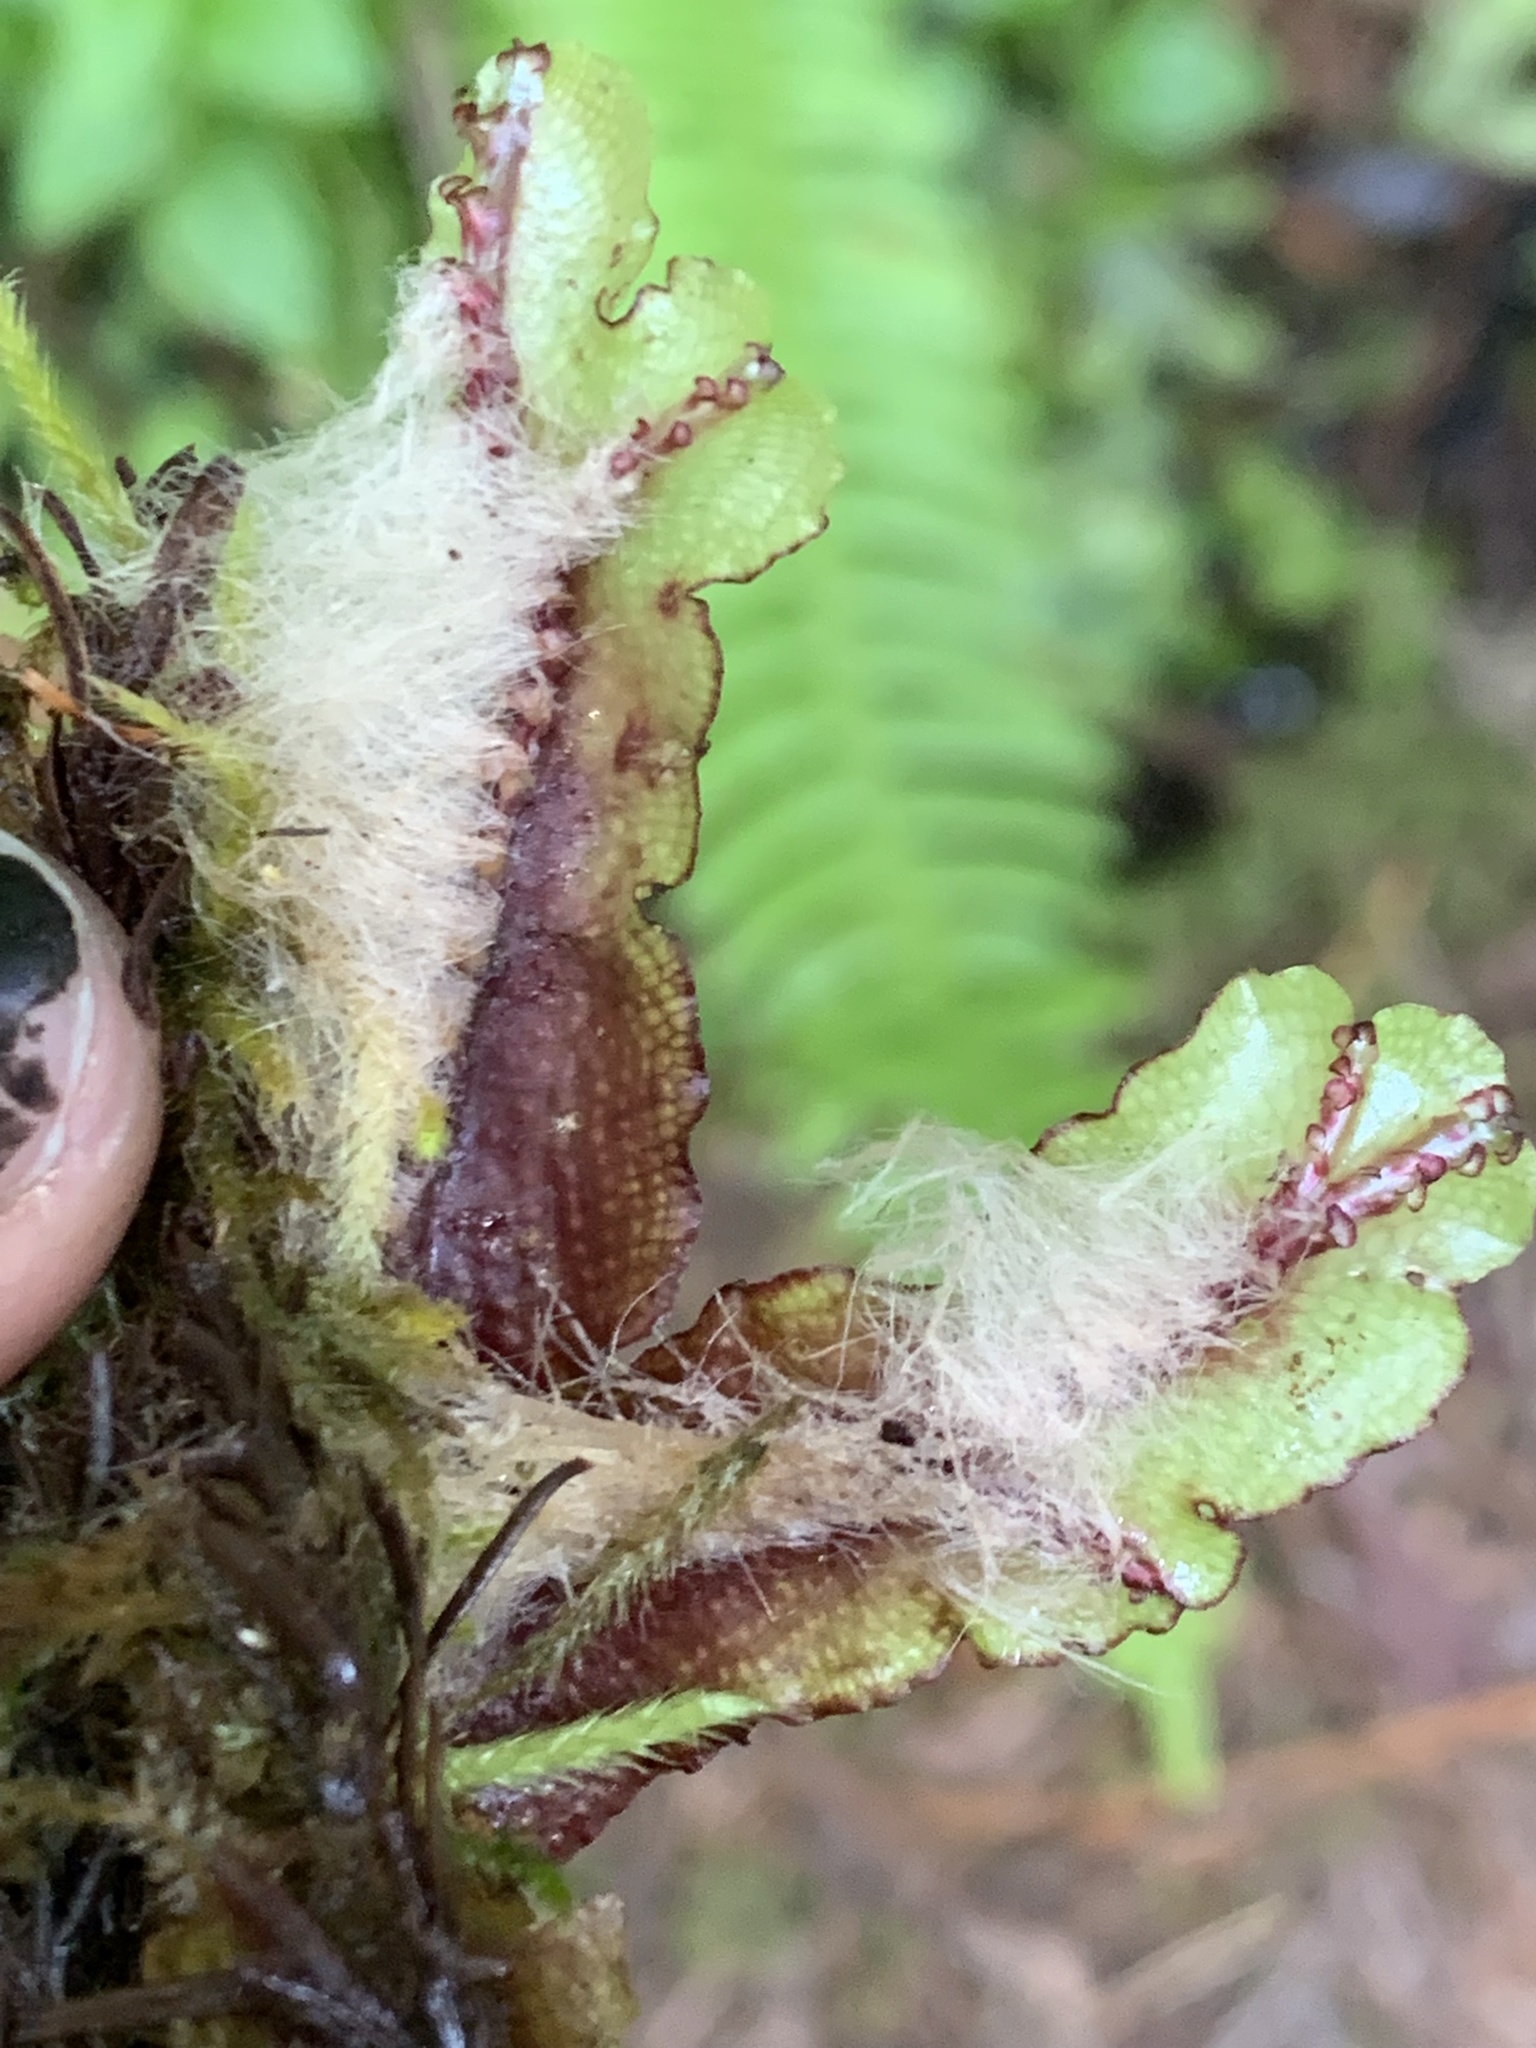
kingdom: Plantae
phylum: Marchantiophyta
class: Marchantiopsida
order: Marchantiales
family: Conocephalaceae
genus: Conocephalum
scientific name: Conocephalum salebrosum
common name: Cat-tongue liverwort
